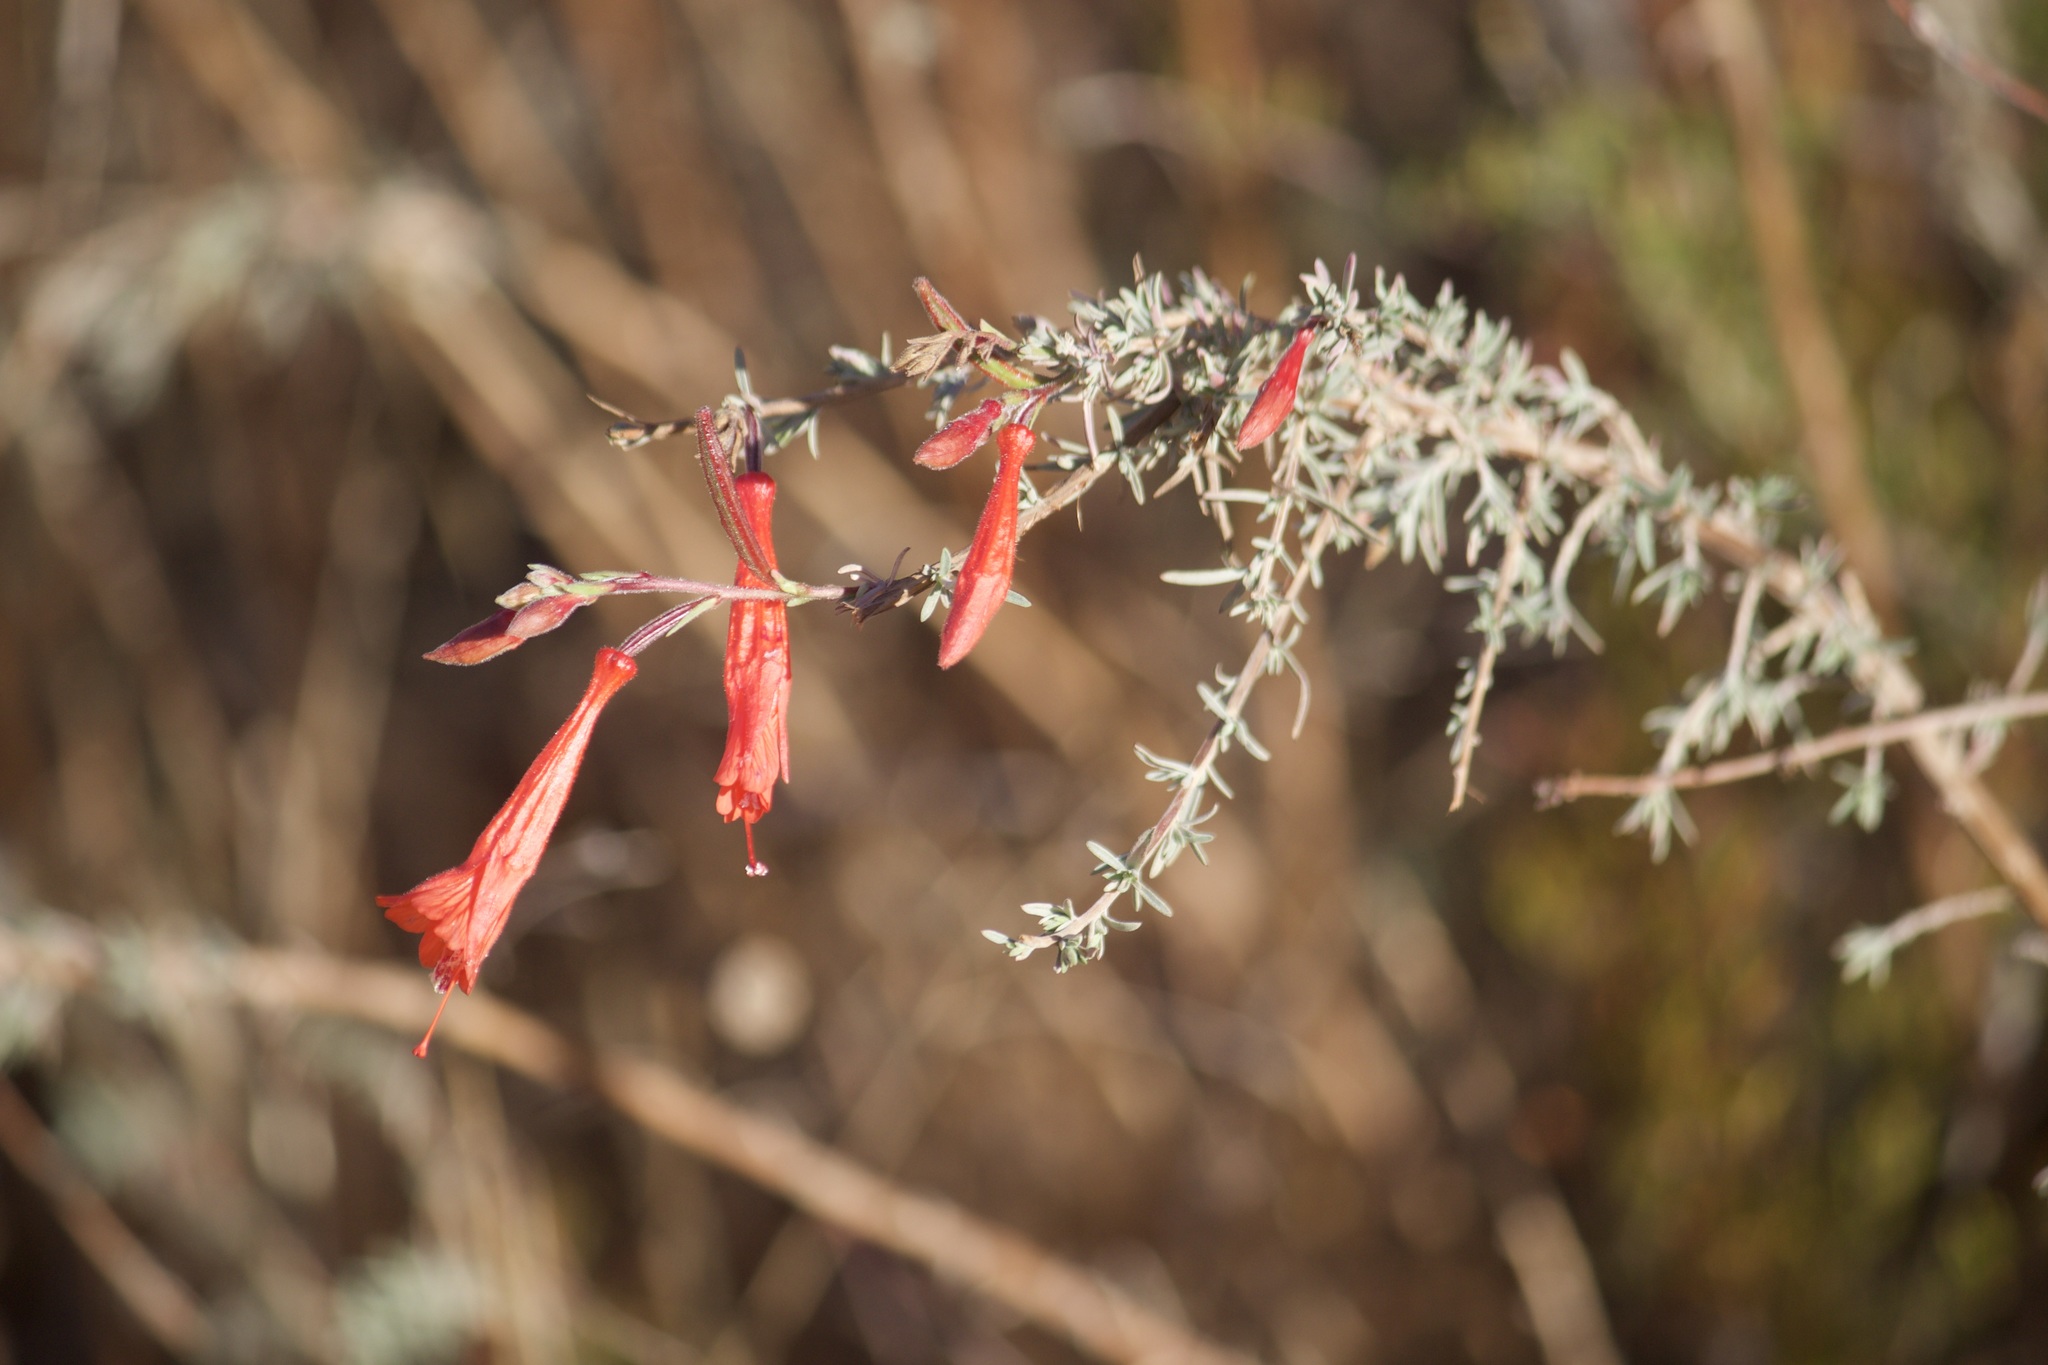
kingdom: Plantae
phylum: Tracheophyta
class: Magnoliopsida
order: Myrtales
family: Onagraceae
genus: Epilobium
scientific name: Epilobium canum
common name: California-fuchsia
